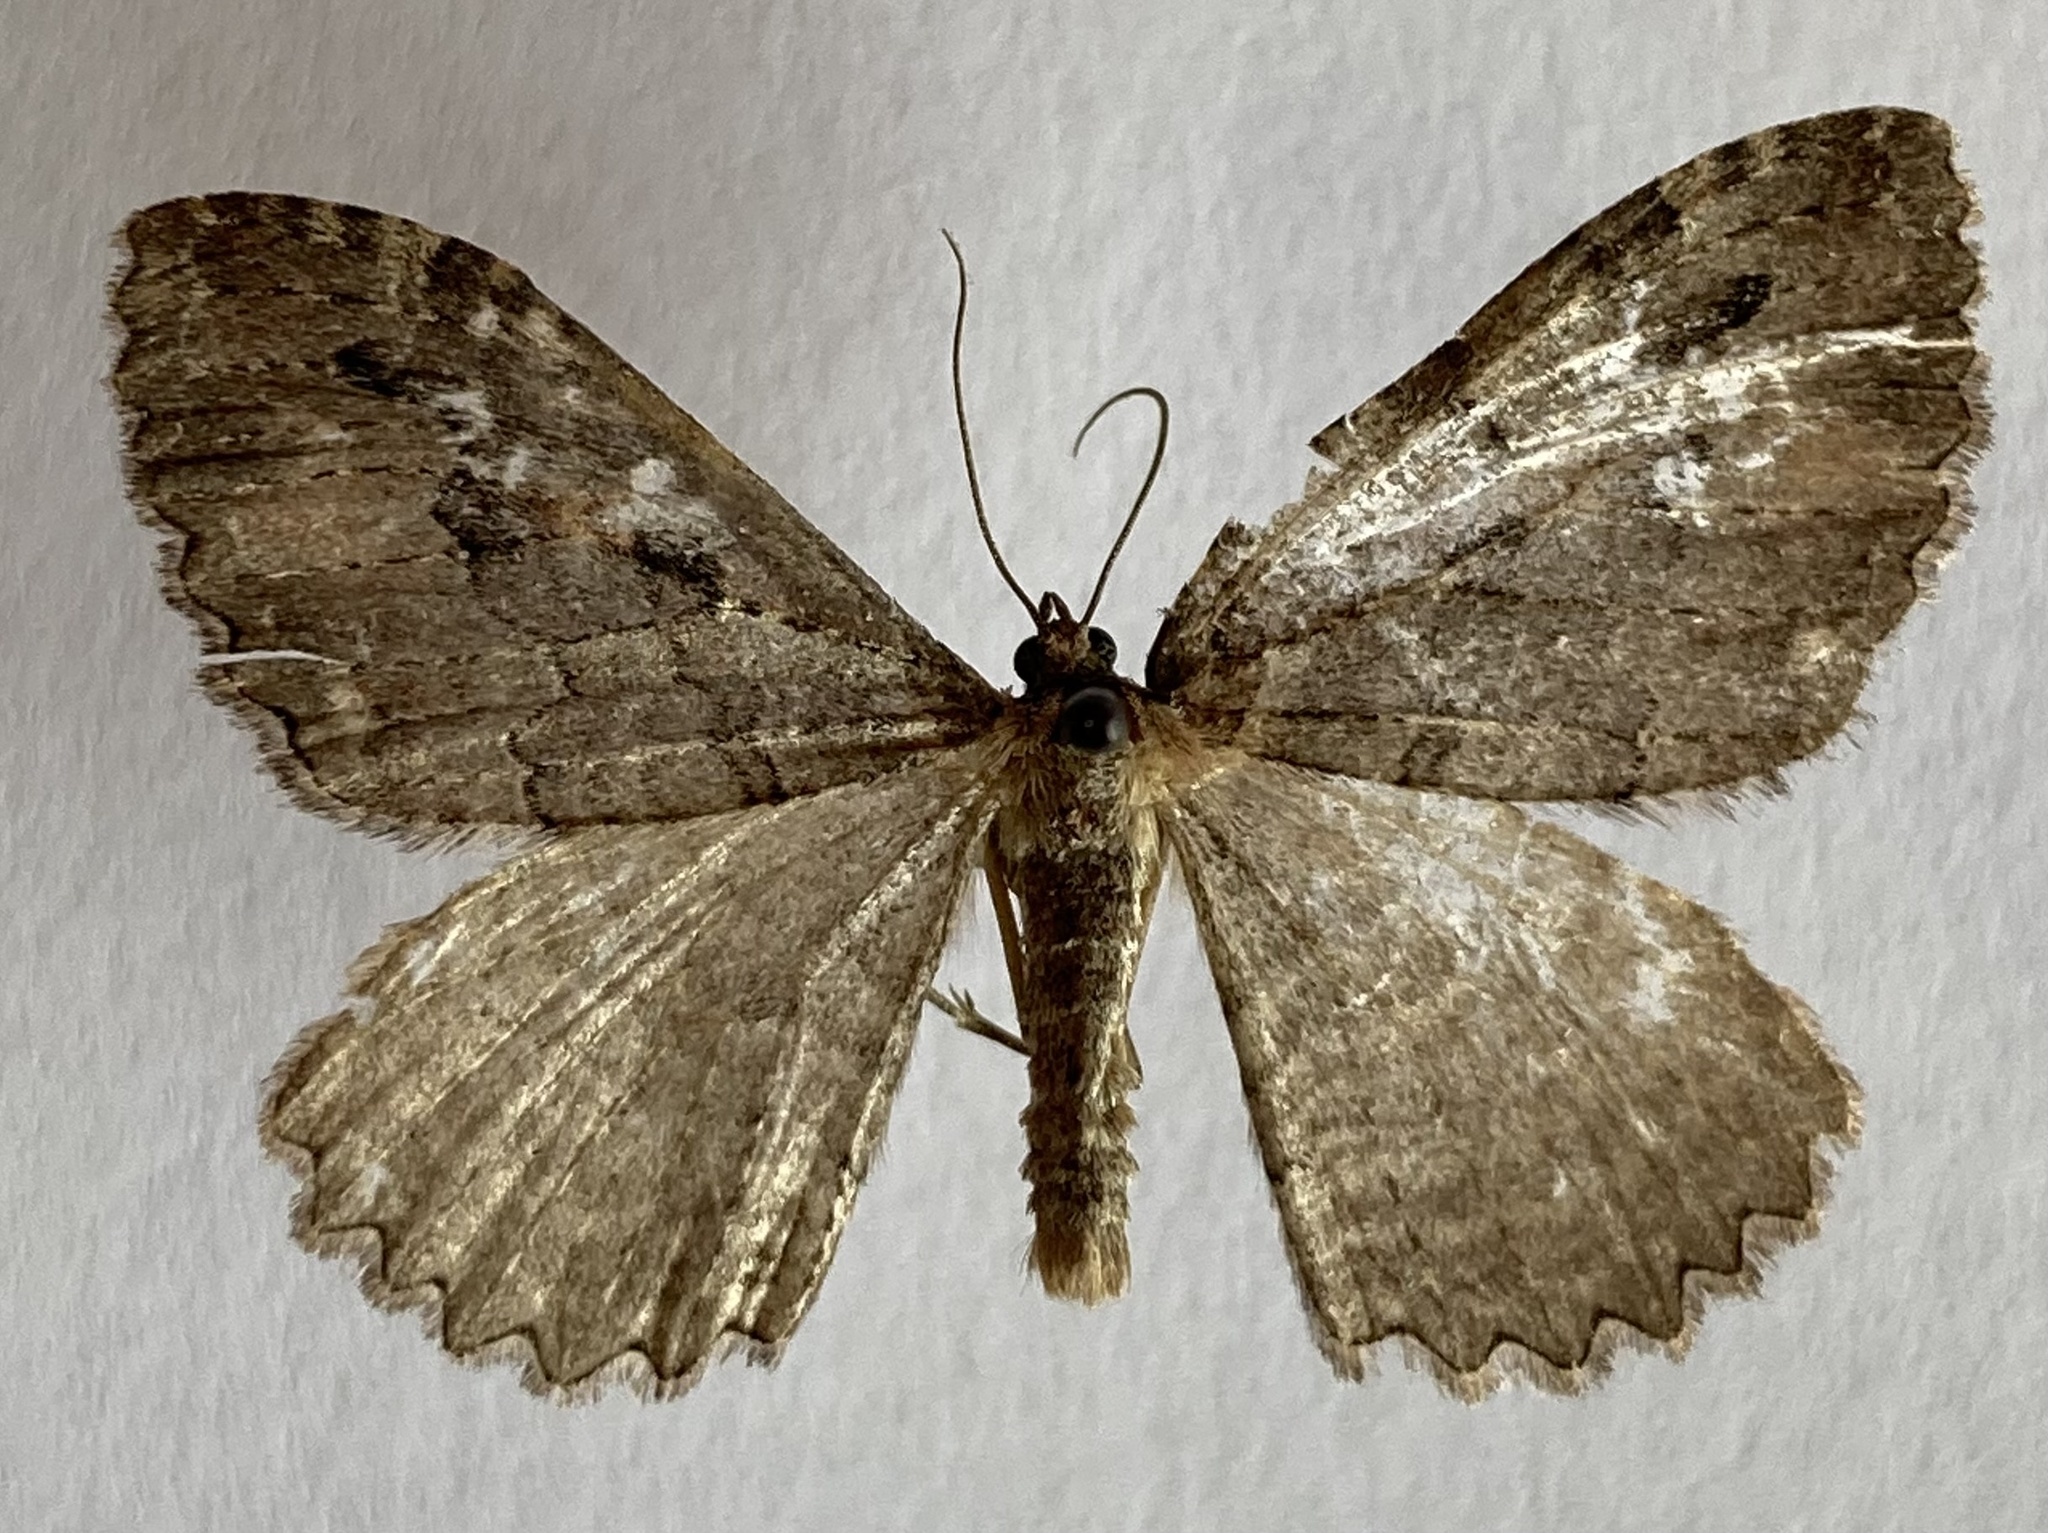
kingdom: Animalia
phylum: Arthropoda
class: Insecta
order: Lepidoptera
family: Geometridae
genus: Triphosa
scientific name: Triphosa haesitata
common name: Tissue moth
